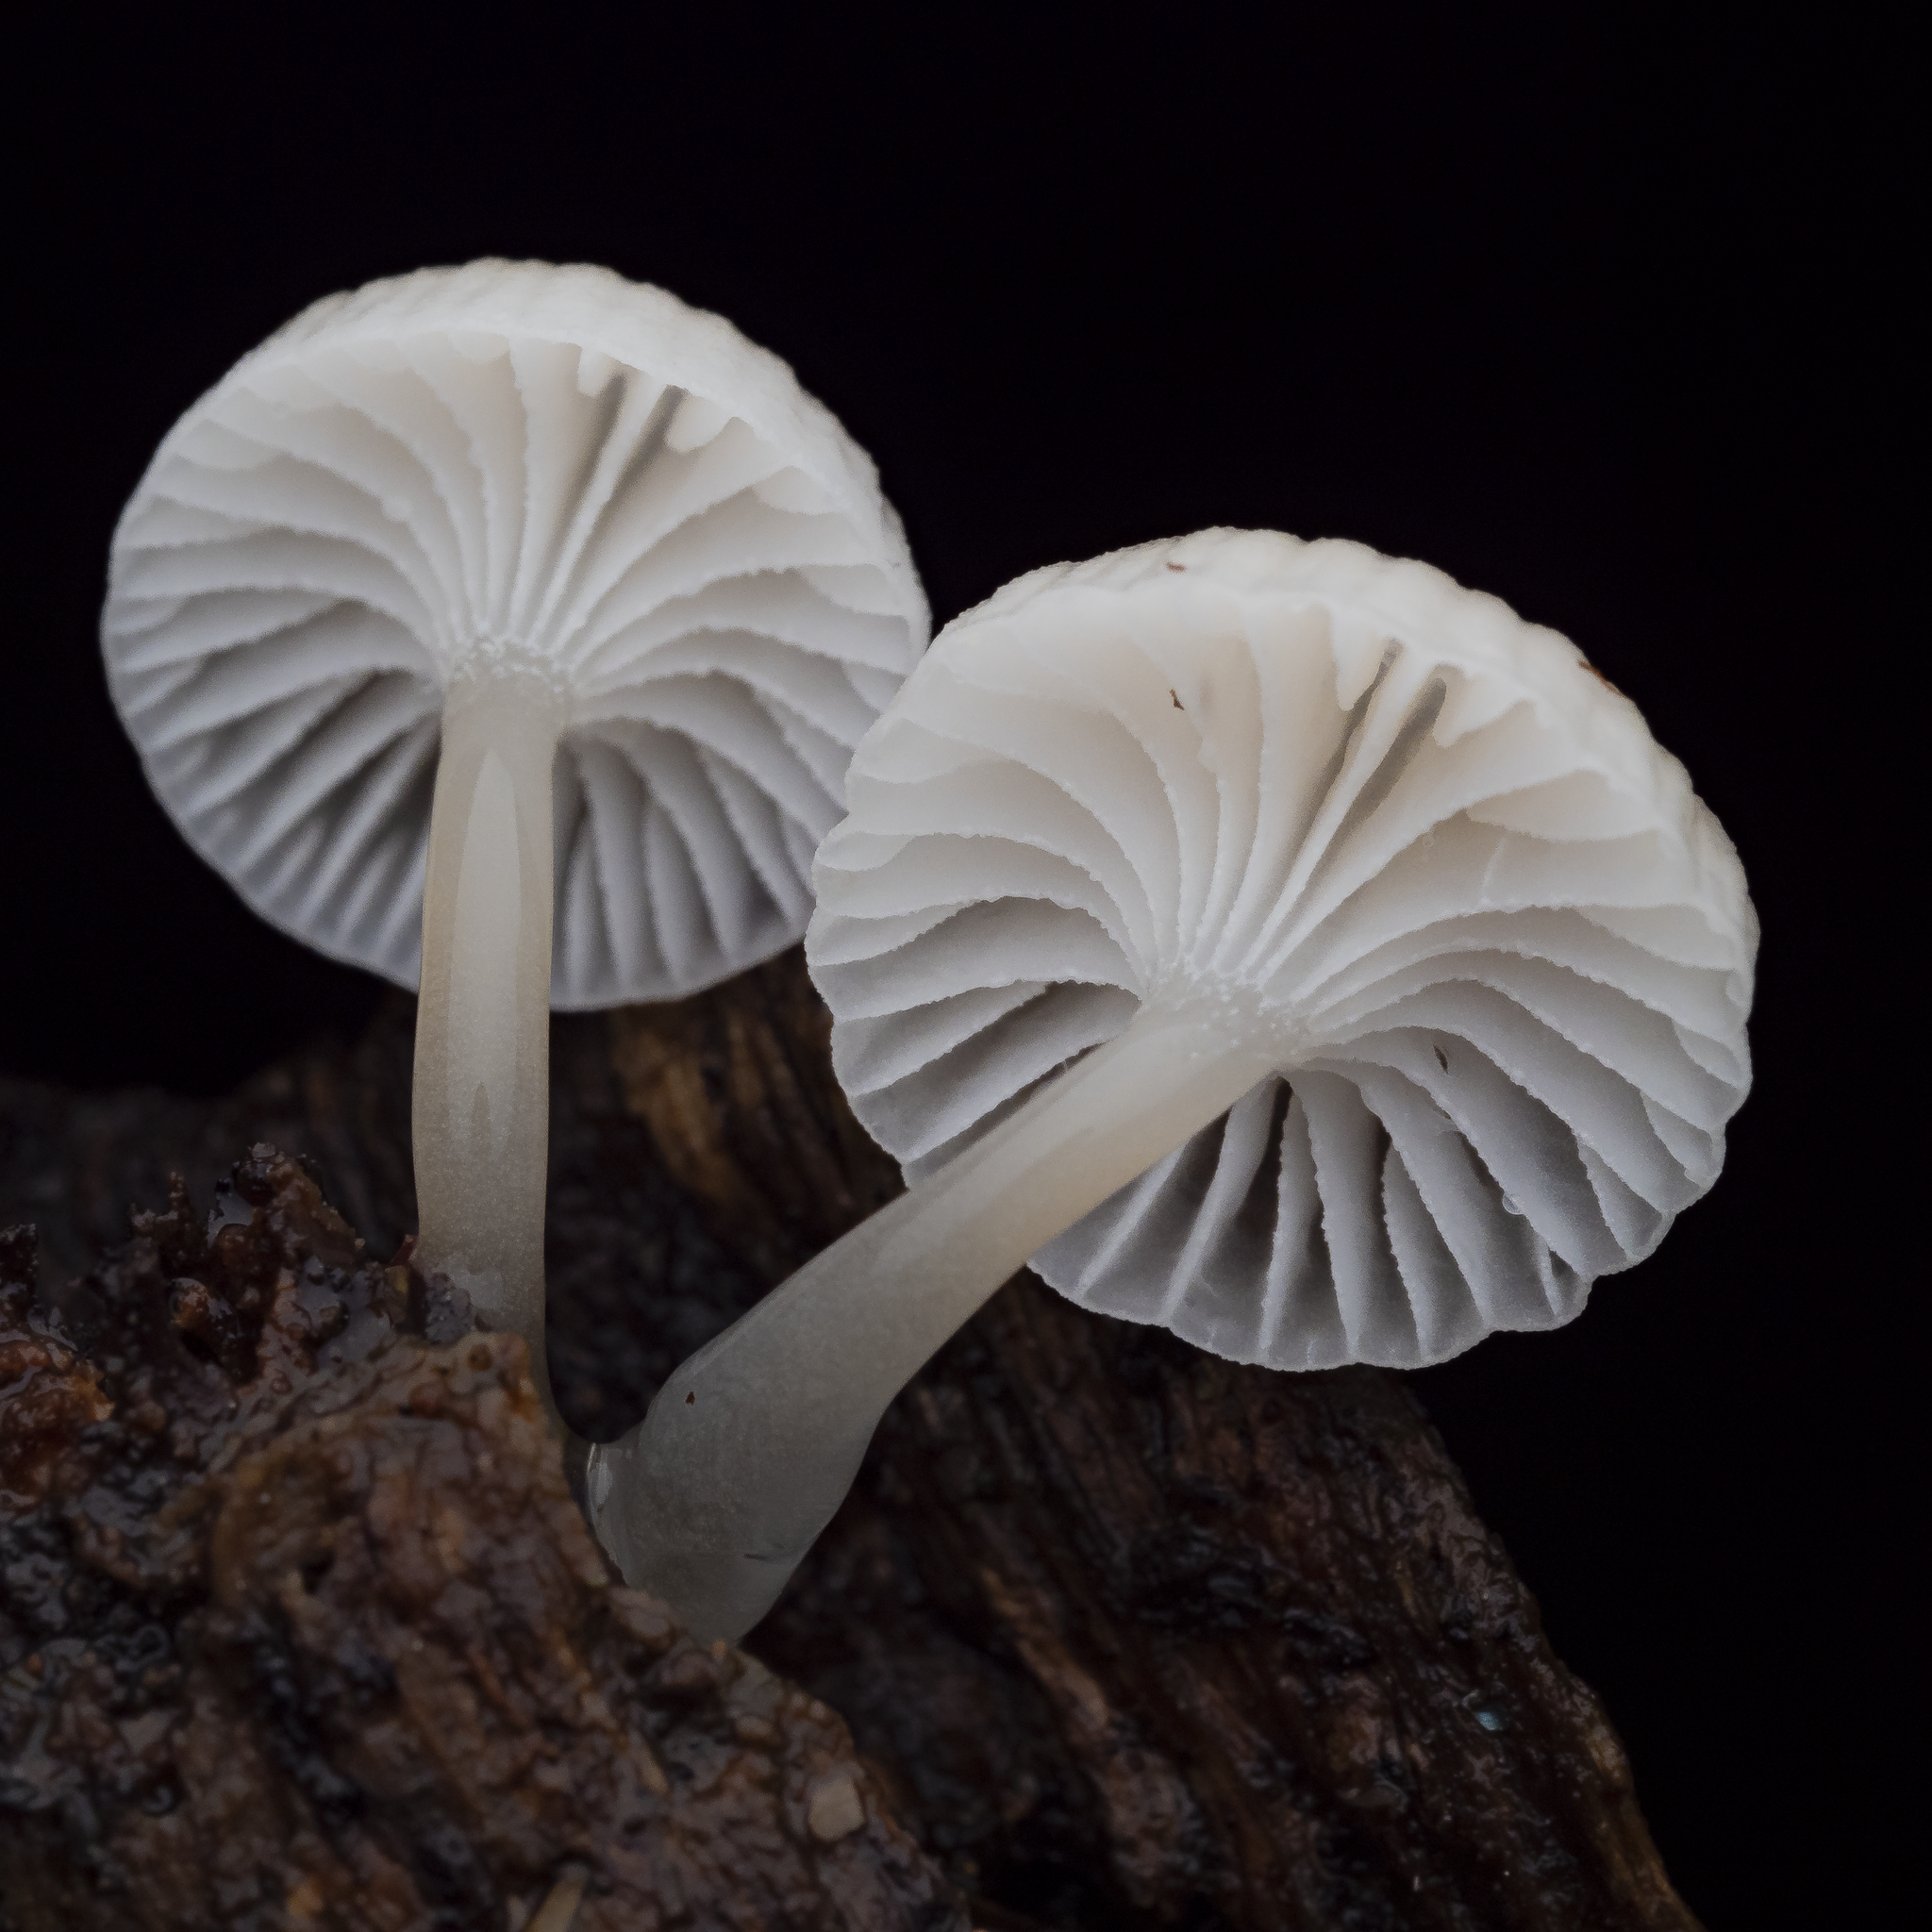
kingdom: Fungi
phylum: Basidiomycota
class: Agaricomycetes
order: Agaricales
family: Mycenaceae
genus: Roridomyces
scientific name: Roridomyces austrororidus
